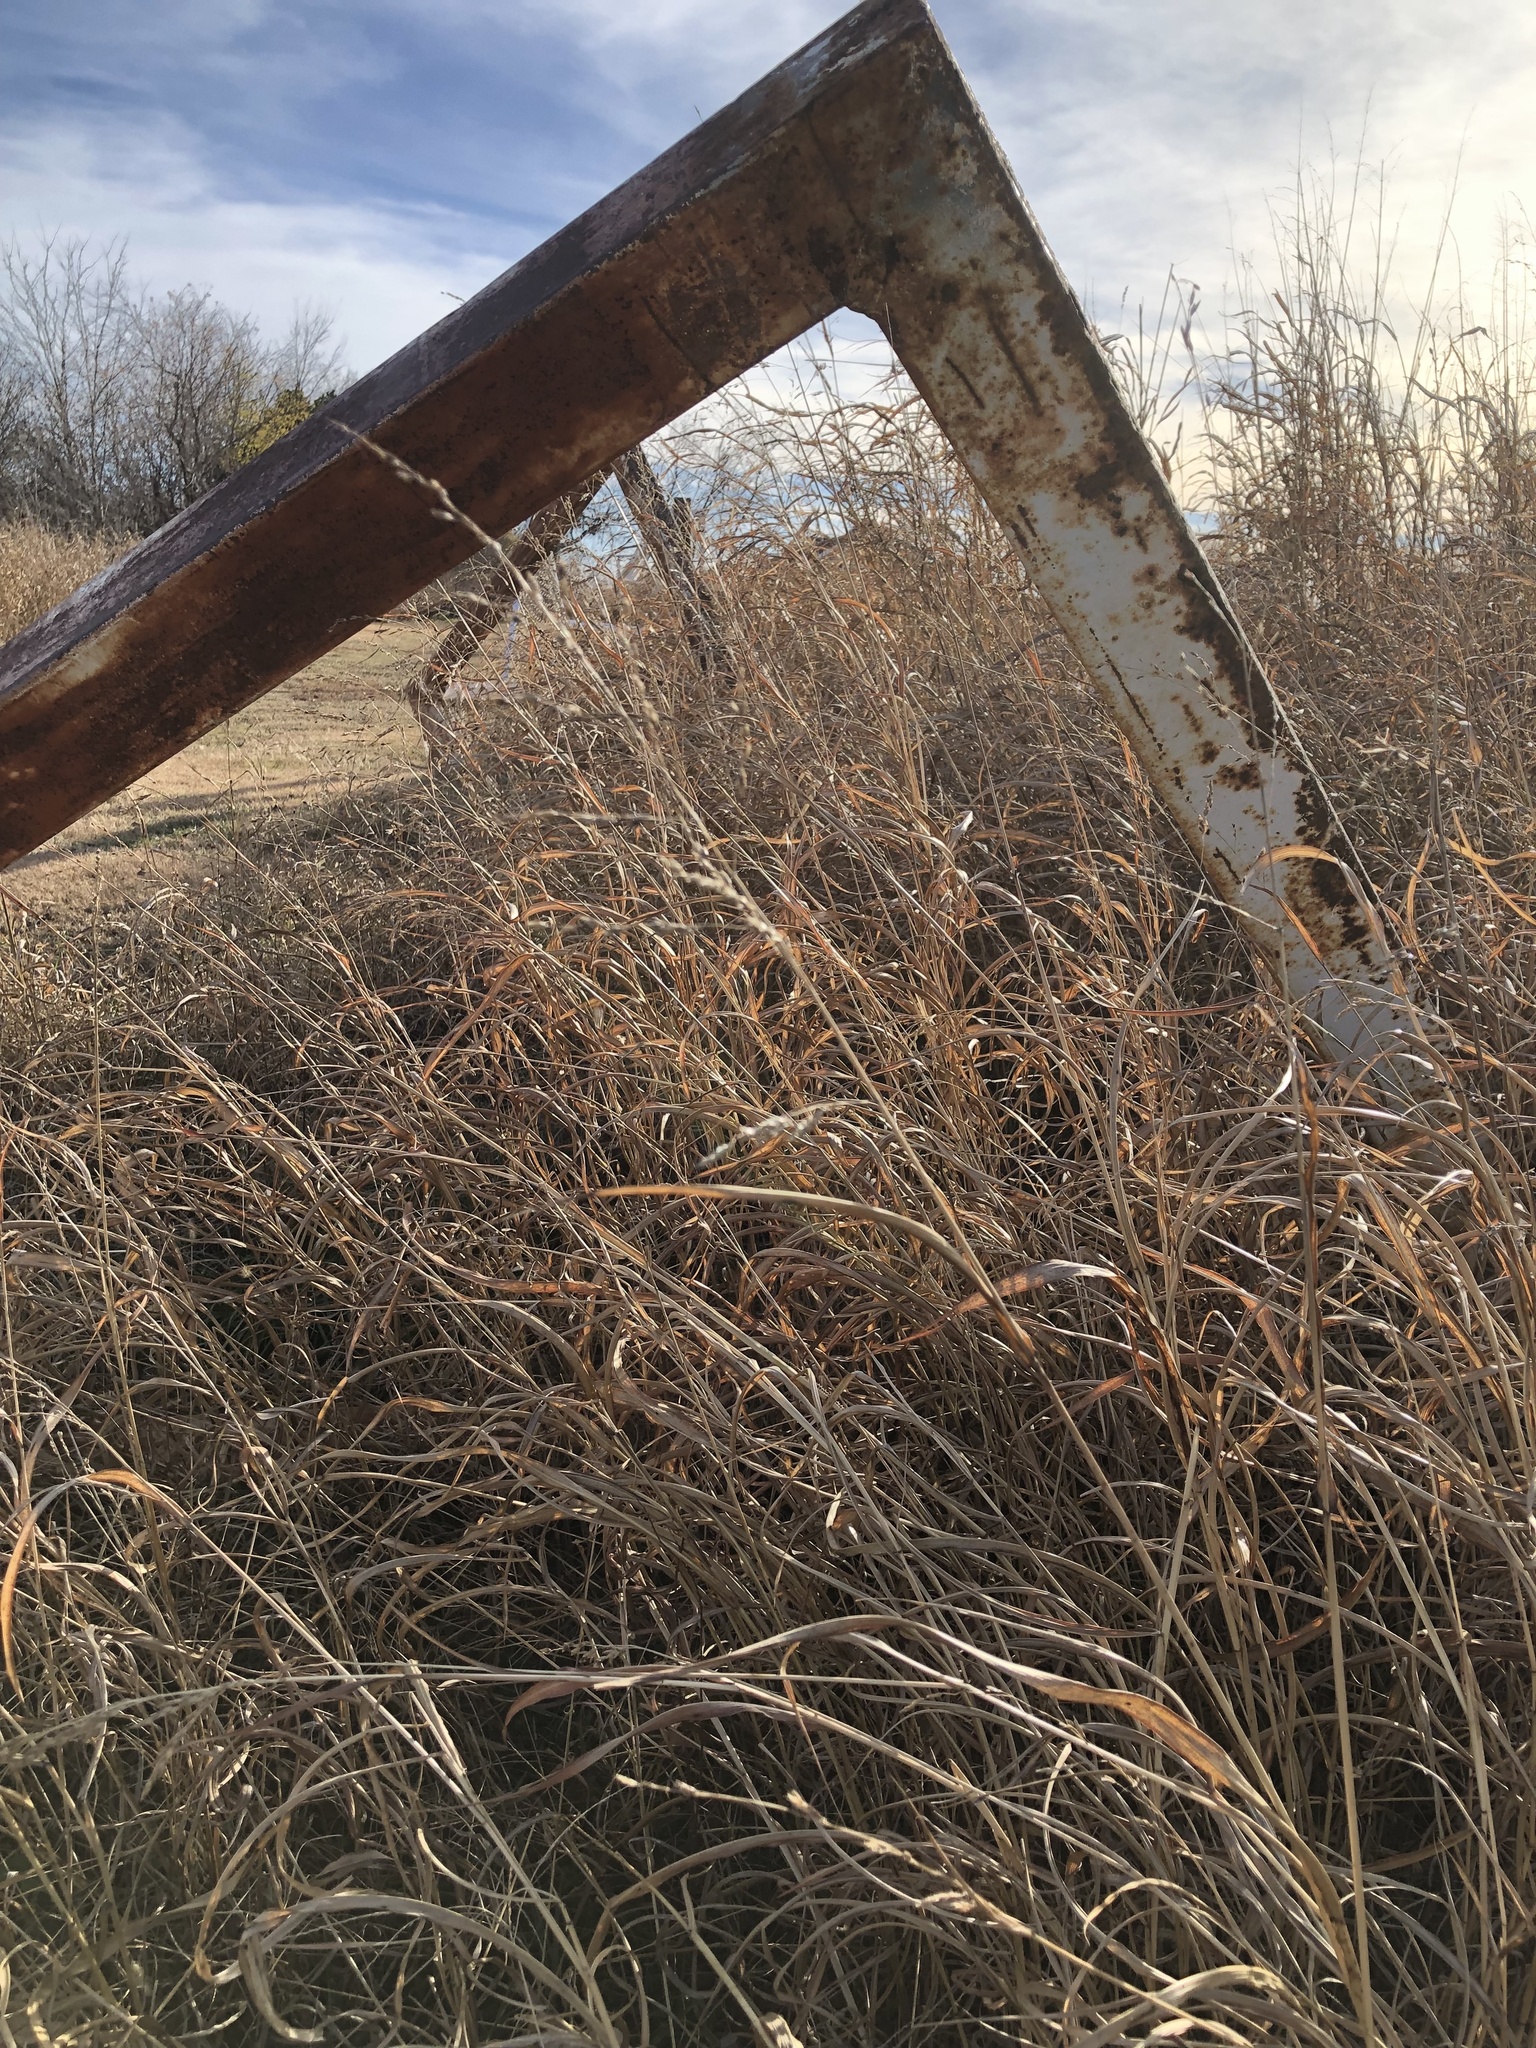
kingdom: Plantae
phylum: Tracheophyta
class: Liliopsida
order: Poales
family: Poaceae
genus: Sorghum
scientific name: Sorghum halepense
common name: Johnson-grass
